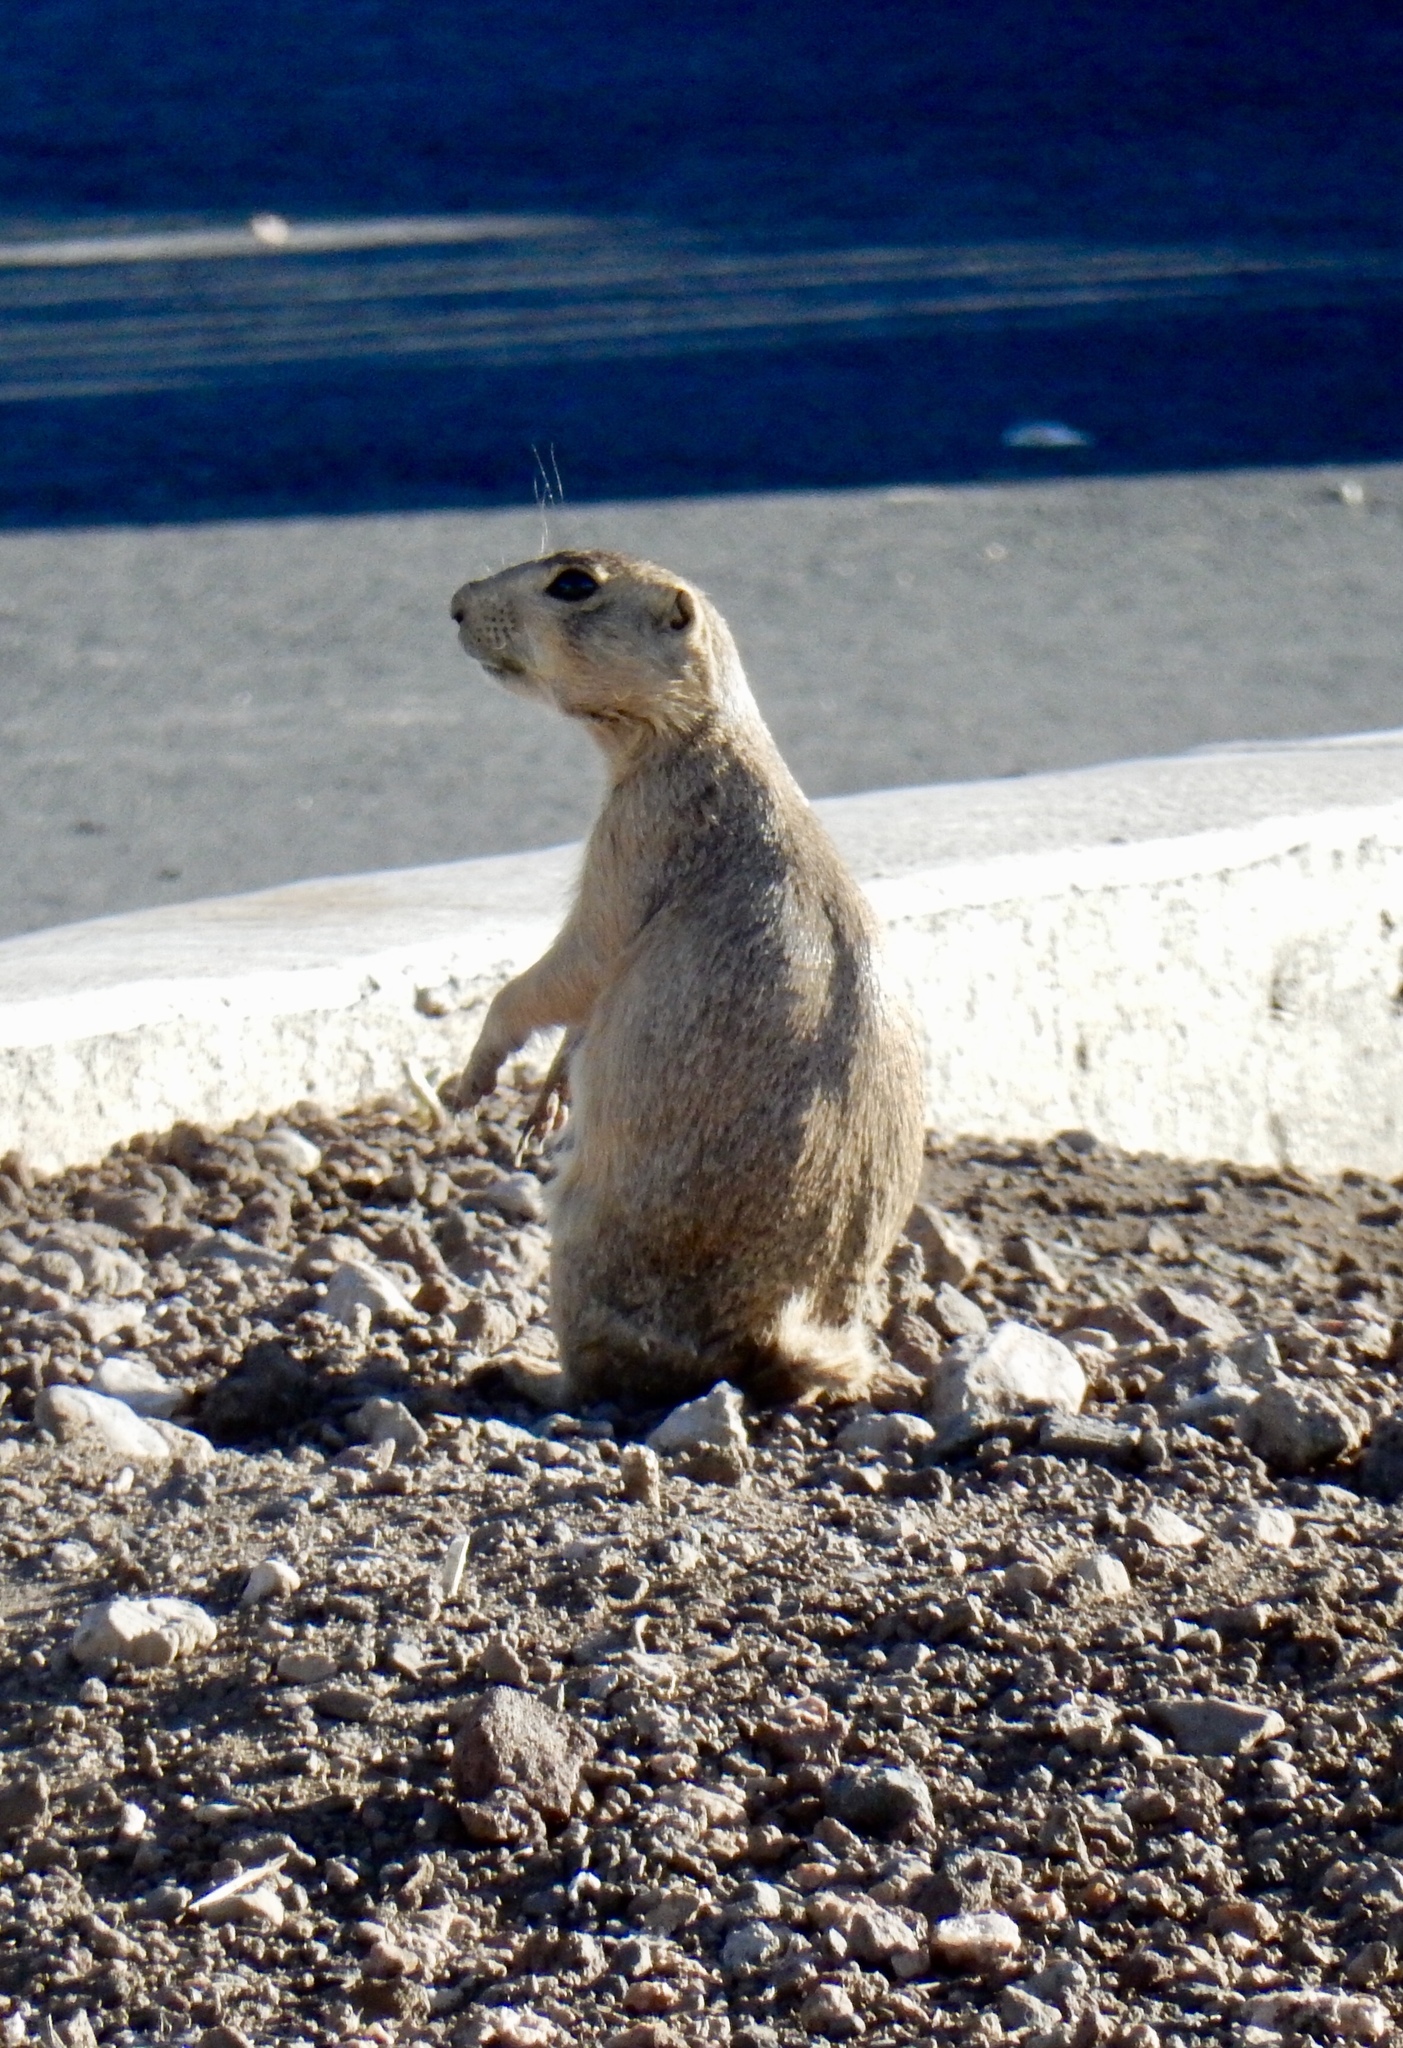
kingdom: Animalia
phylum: Chordata
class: Mammalia
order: Rodentia
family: Sciuridae
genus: Cynomys
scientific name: Cynomys gunnisoni
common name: Gunnison's prairie dog
